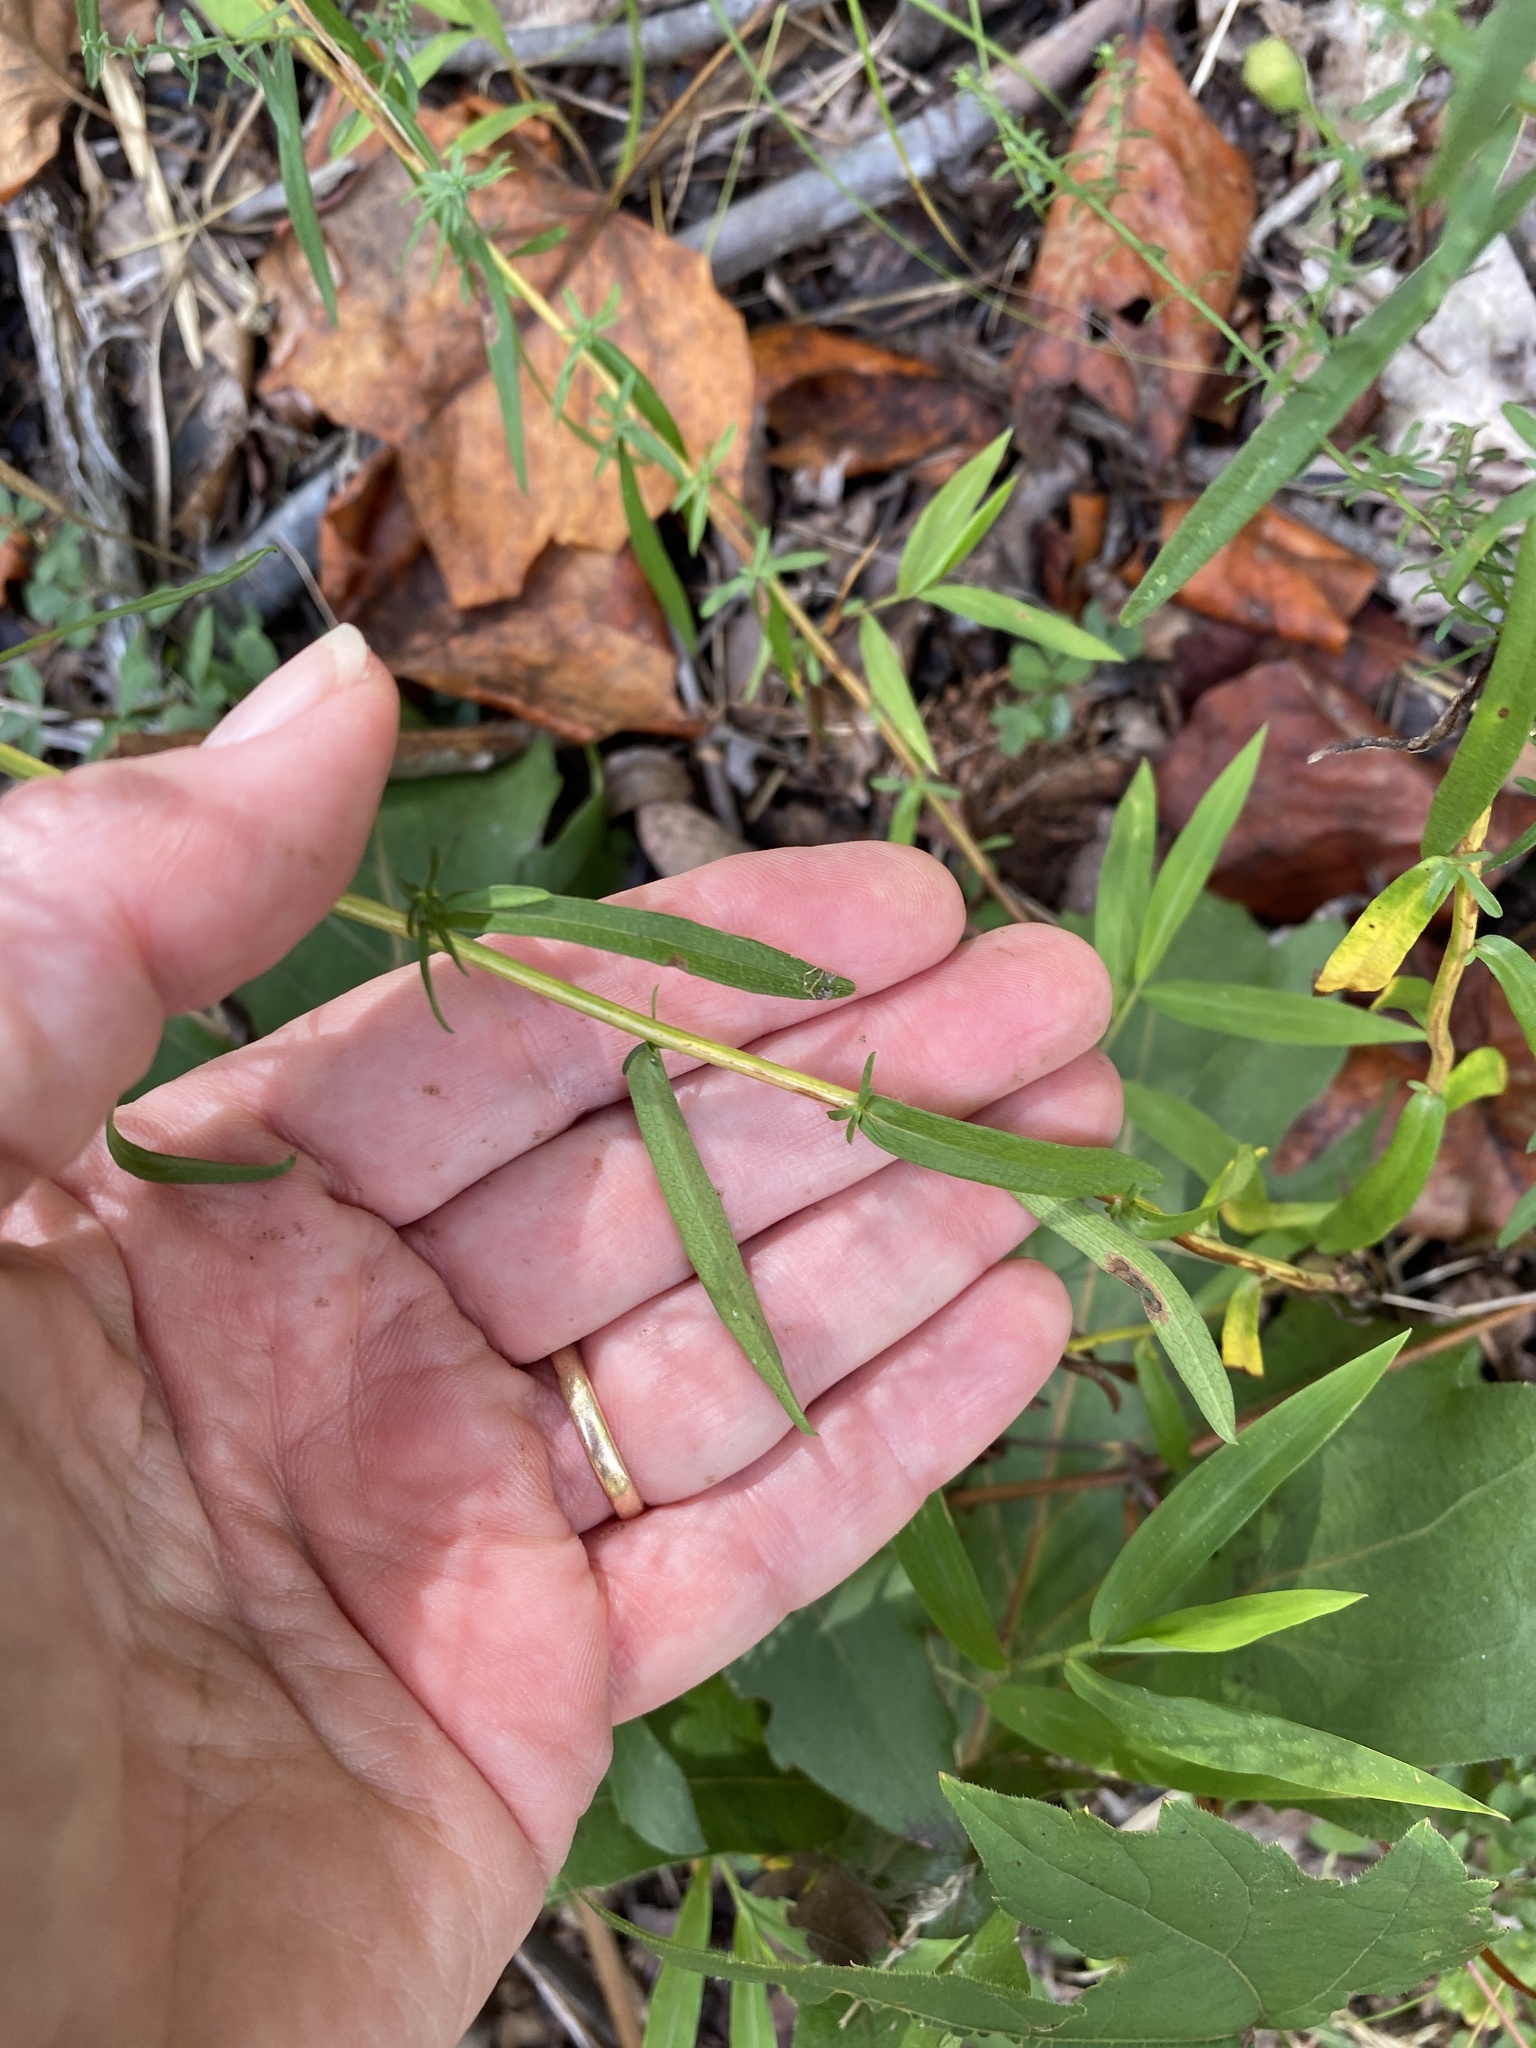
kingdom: Plantae
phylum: Tracheophyta
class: Magnoliopsida
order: Asterales
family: Asteraceae
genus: Symphyotrichum
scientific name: Symphyotrichum dumosum
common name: Bushy aster
